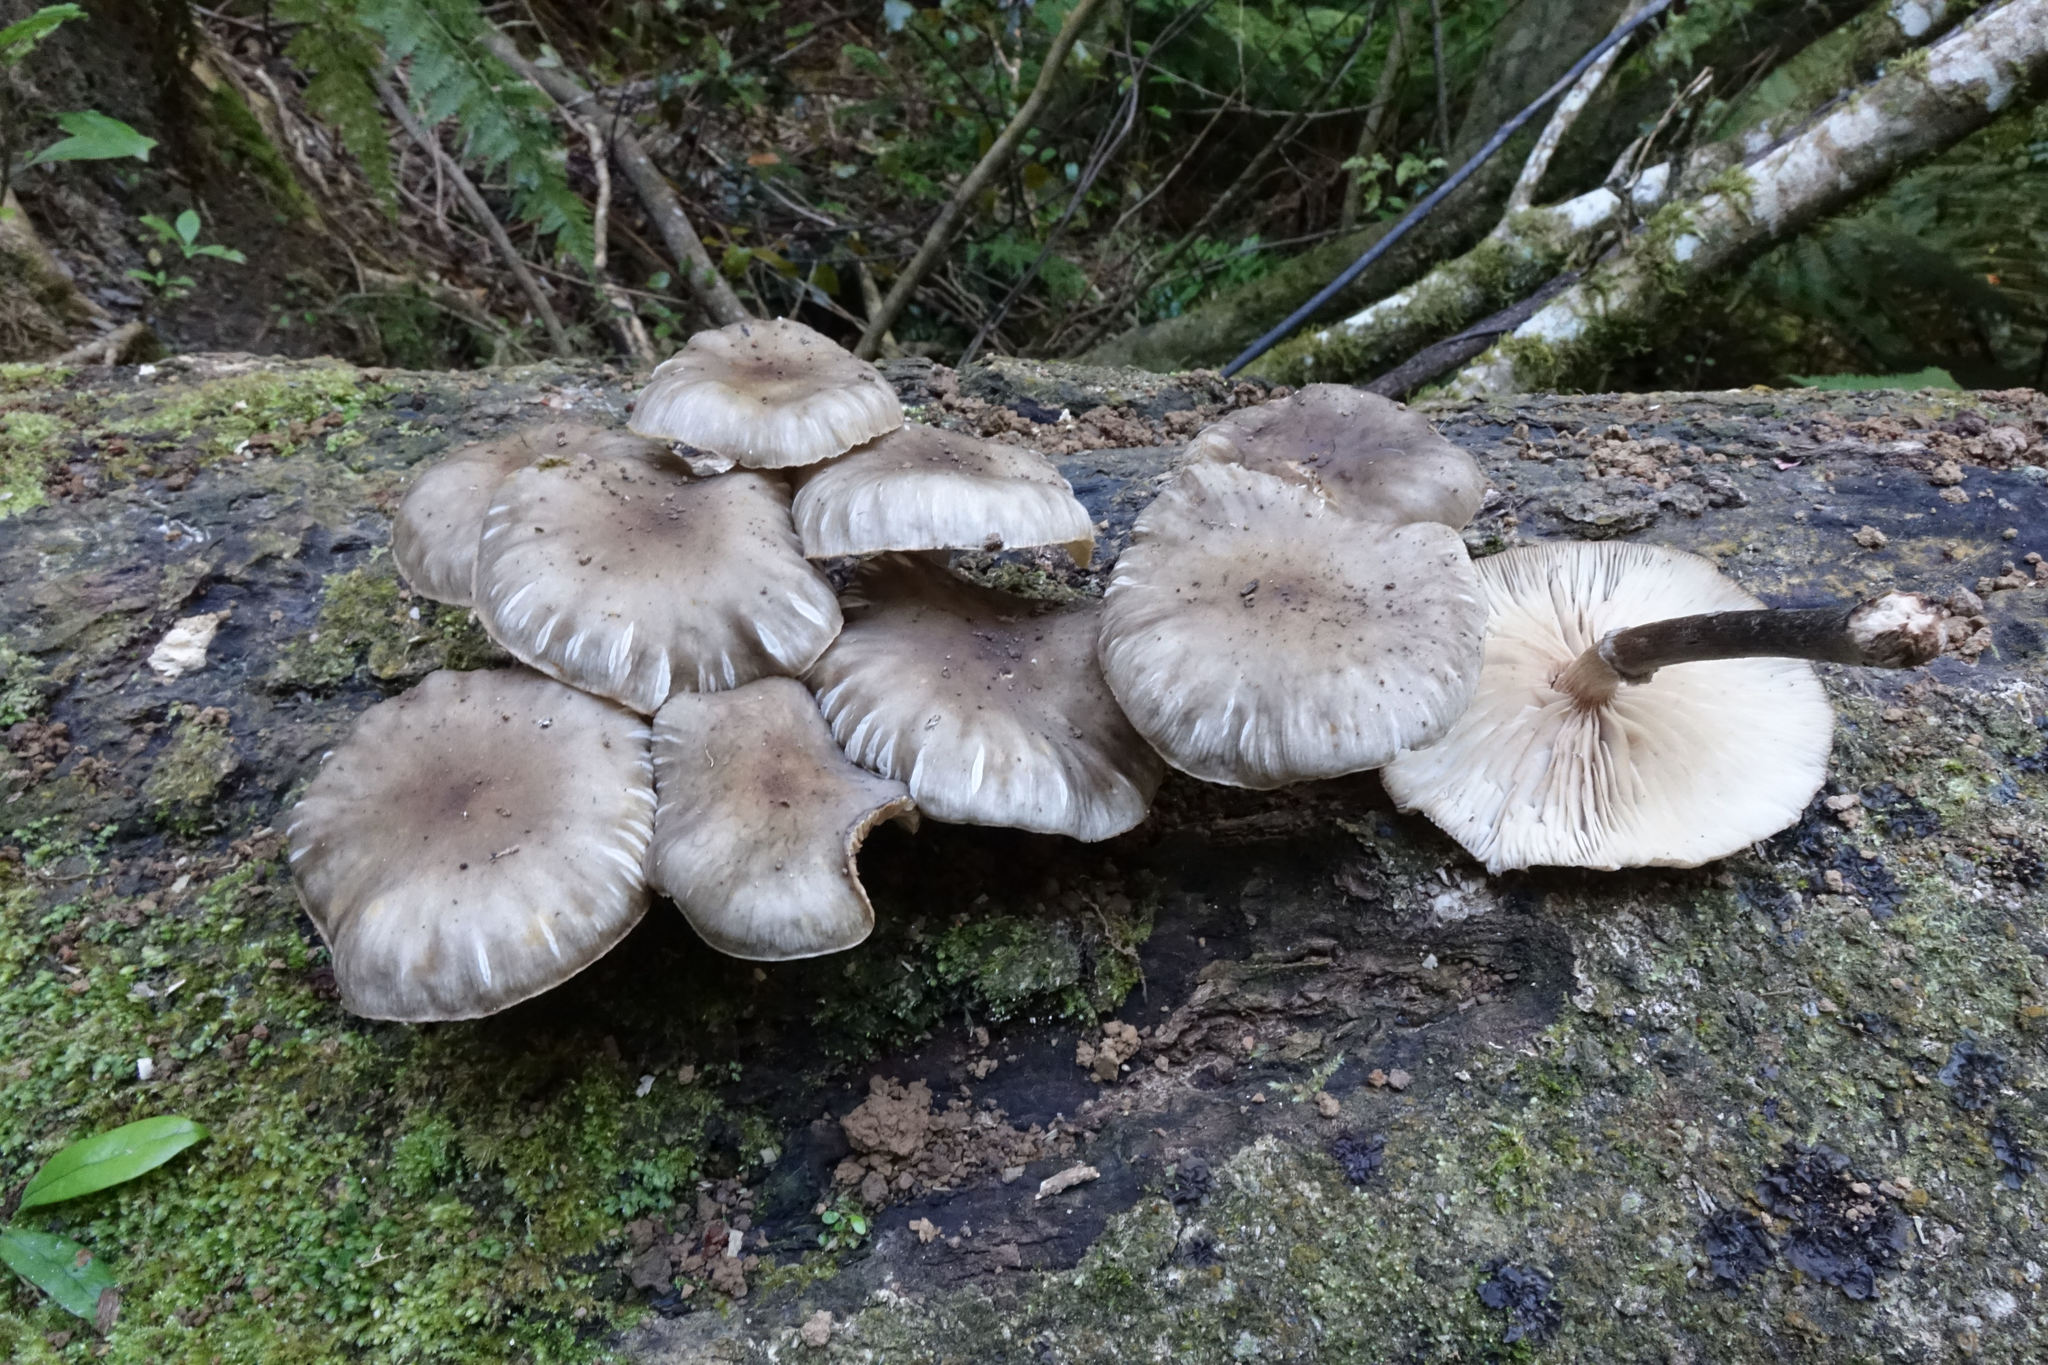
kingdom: Fungi
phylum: Basidiomycota
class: Agaricomycetes
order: Agaricales
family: Physalacriaceae
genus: Armillaria
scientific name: Armillaria novae-zelandiae
